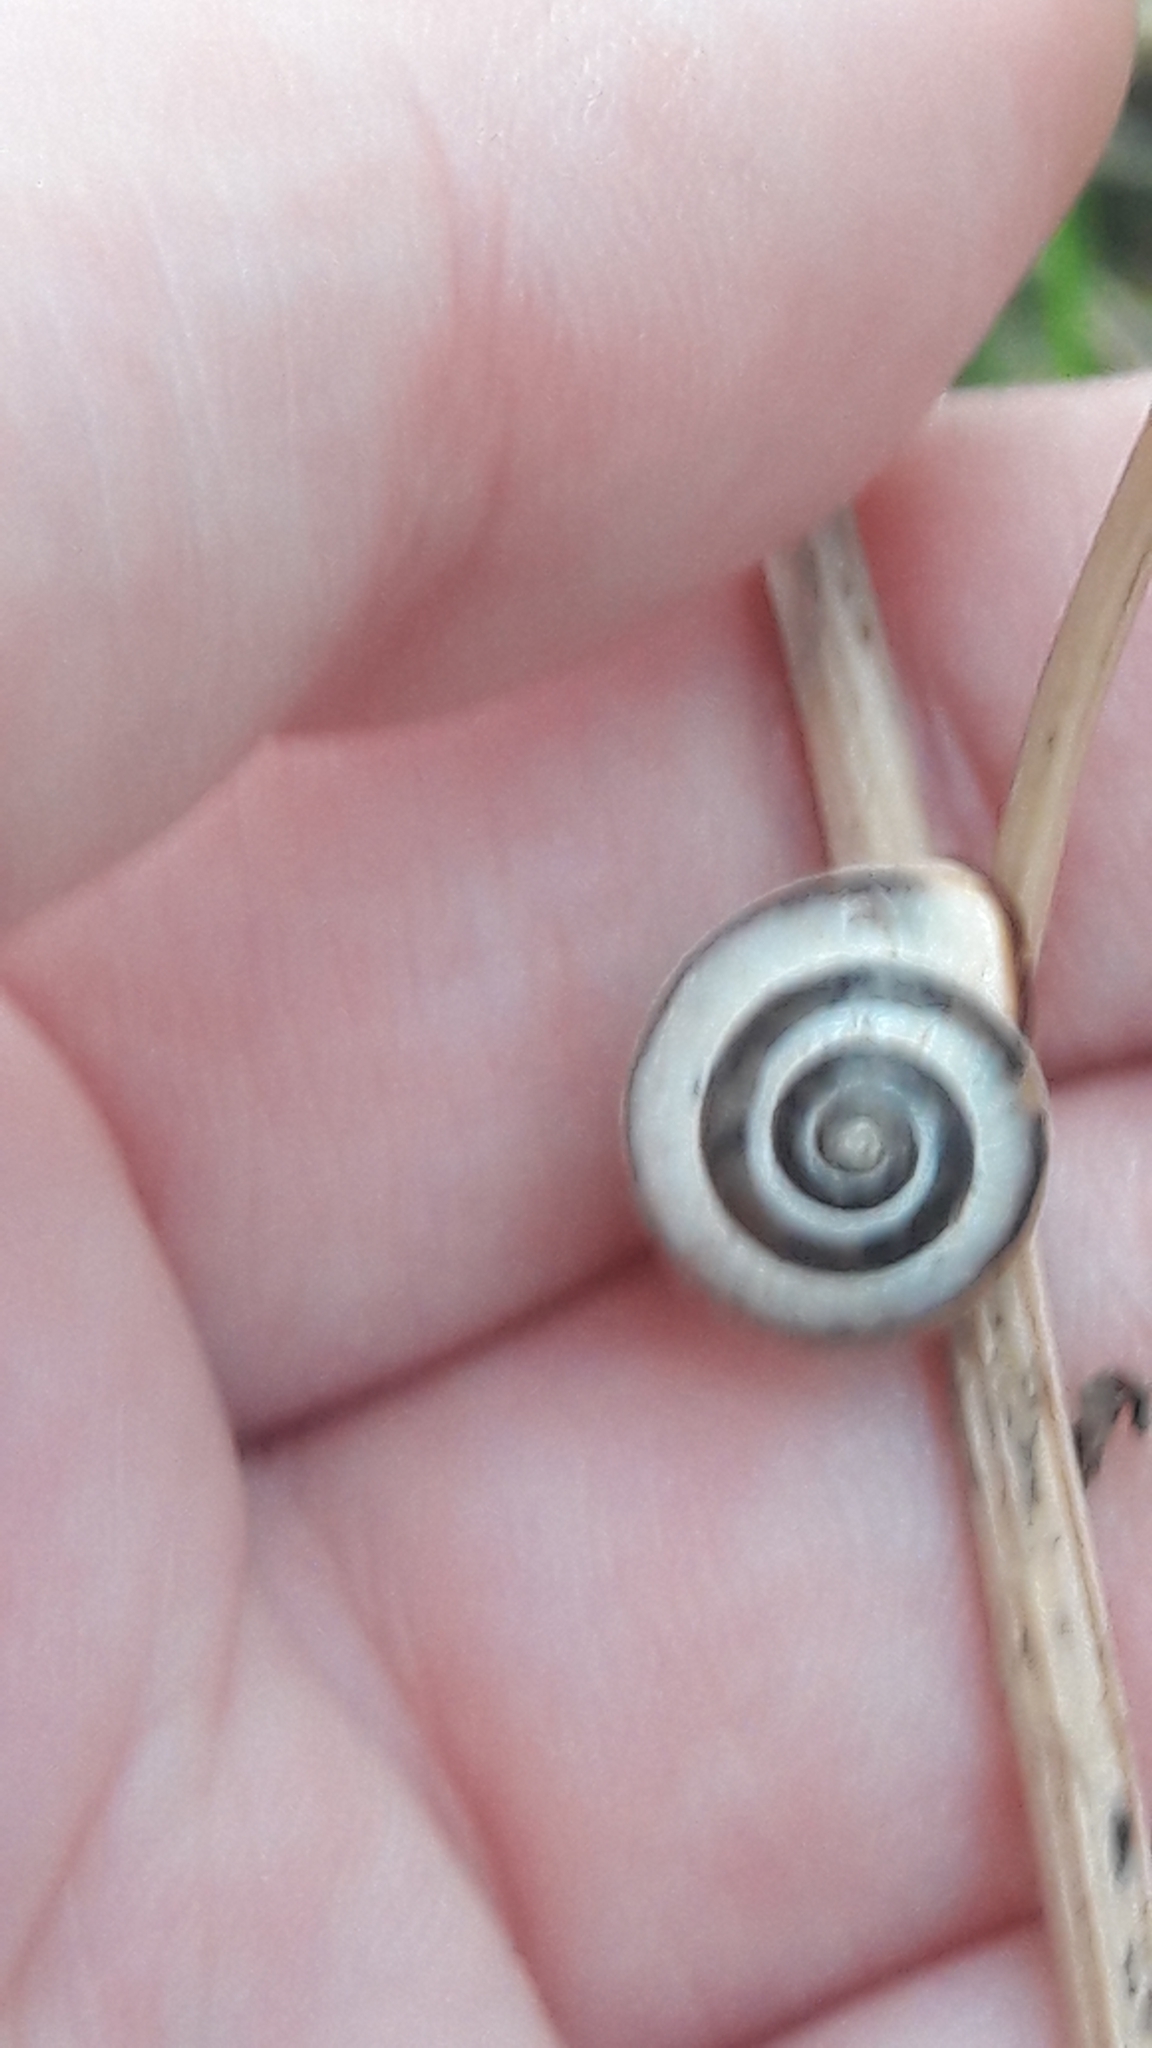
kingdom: Animalia
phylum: Mollusca
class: Gastropoda
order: Stylommatophora
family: Hygromiidae
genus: Monacha
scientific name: Monacha syriaca
